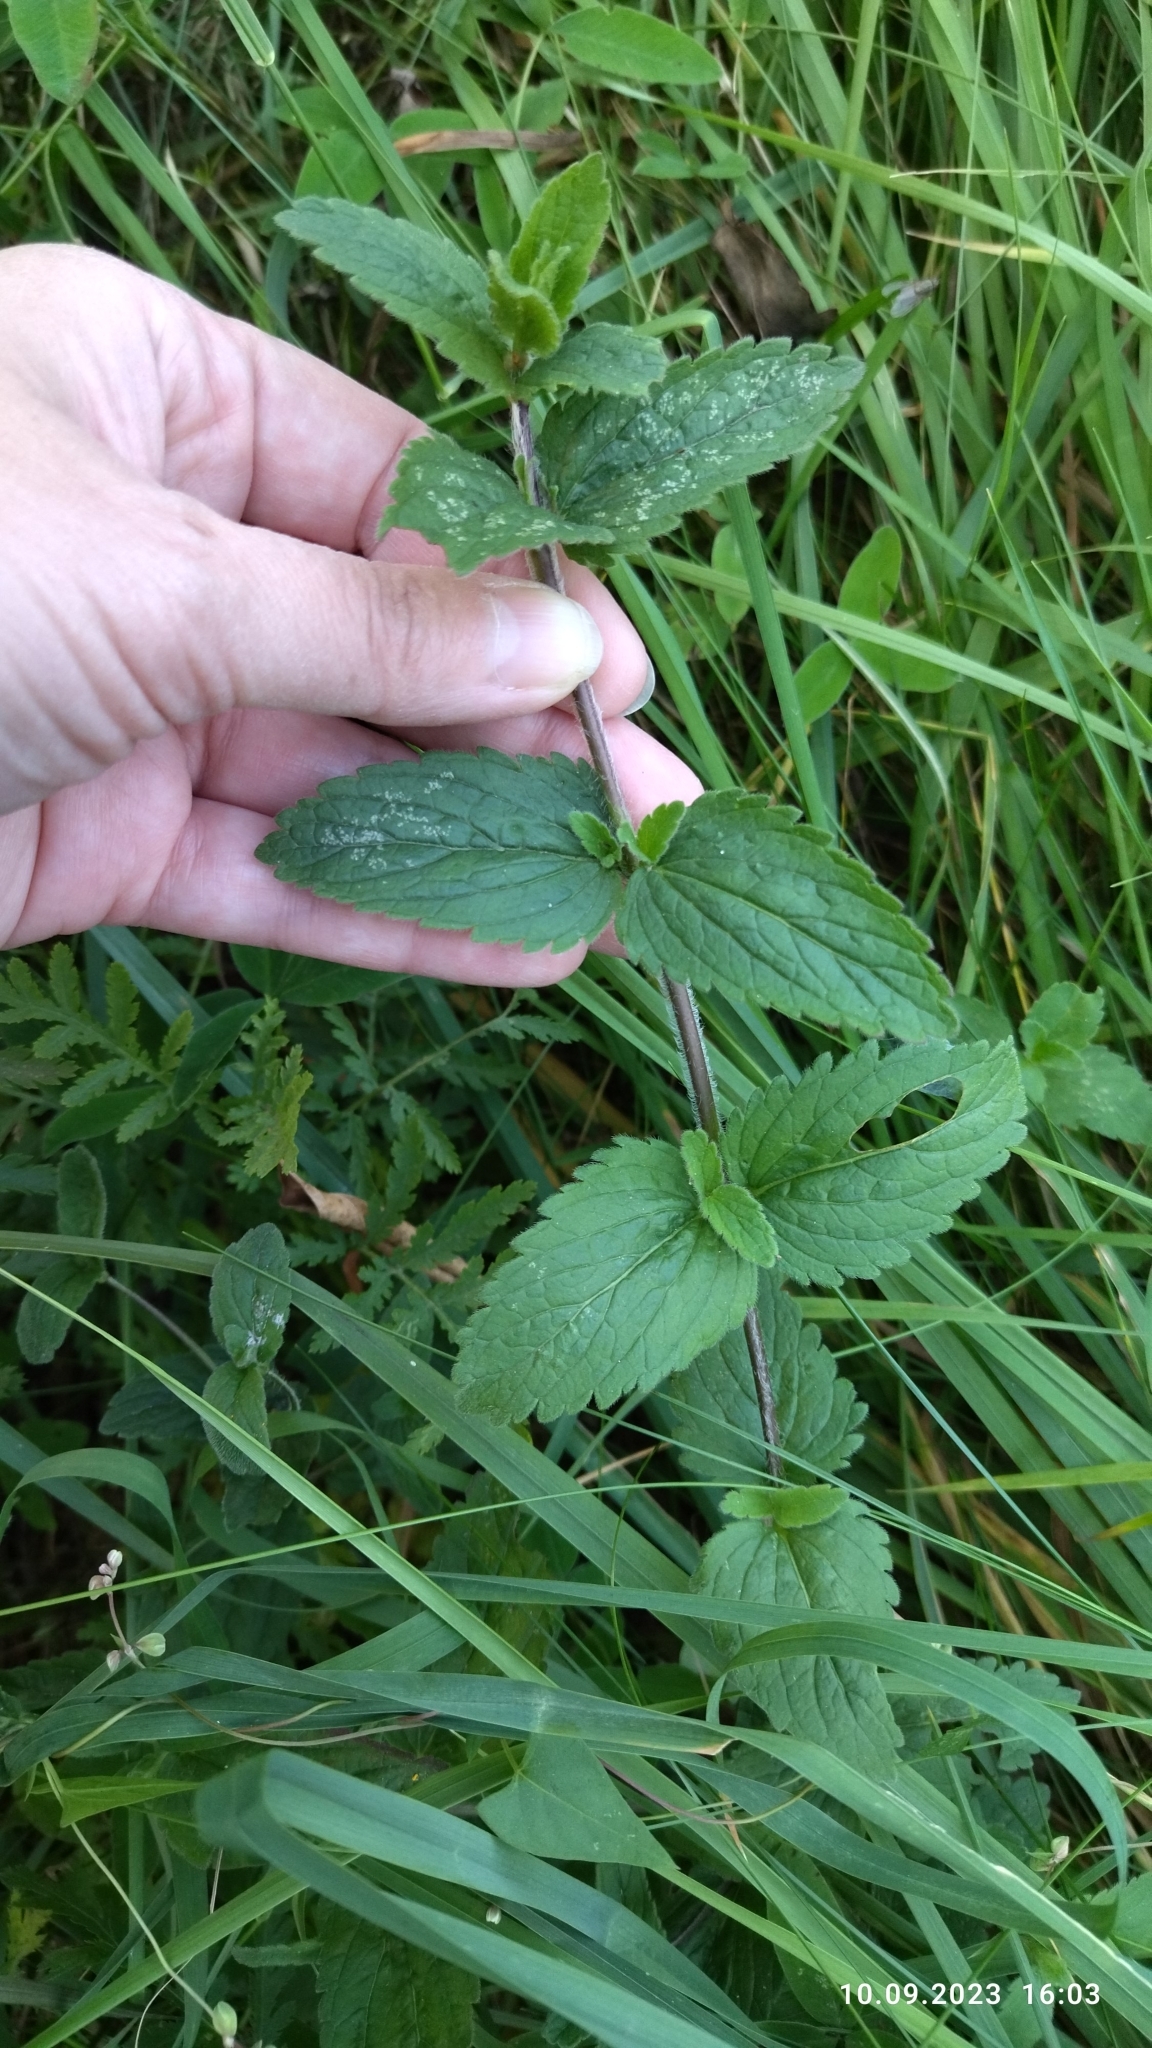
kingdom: Plantae
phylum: Tracheophyta
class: Magnoliopsida
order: Lamiales
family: Plantaginaceae
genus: Veronica
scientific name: Veronica chamaedrys
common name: Germander speedwell
